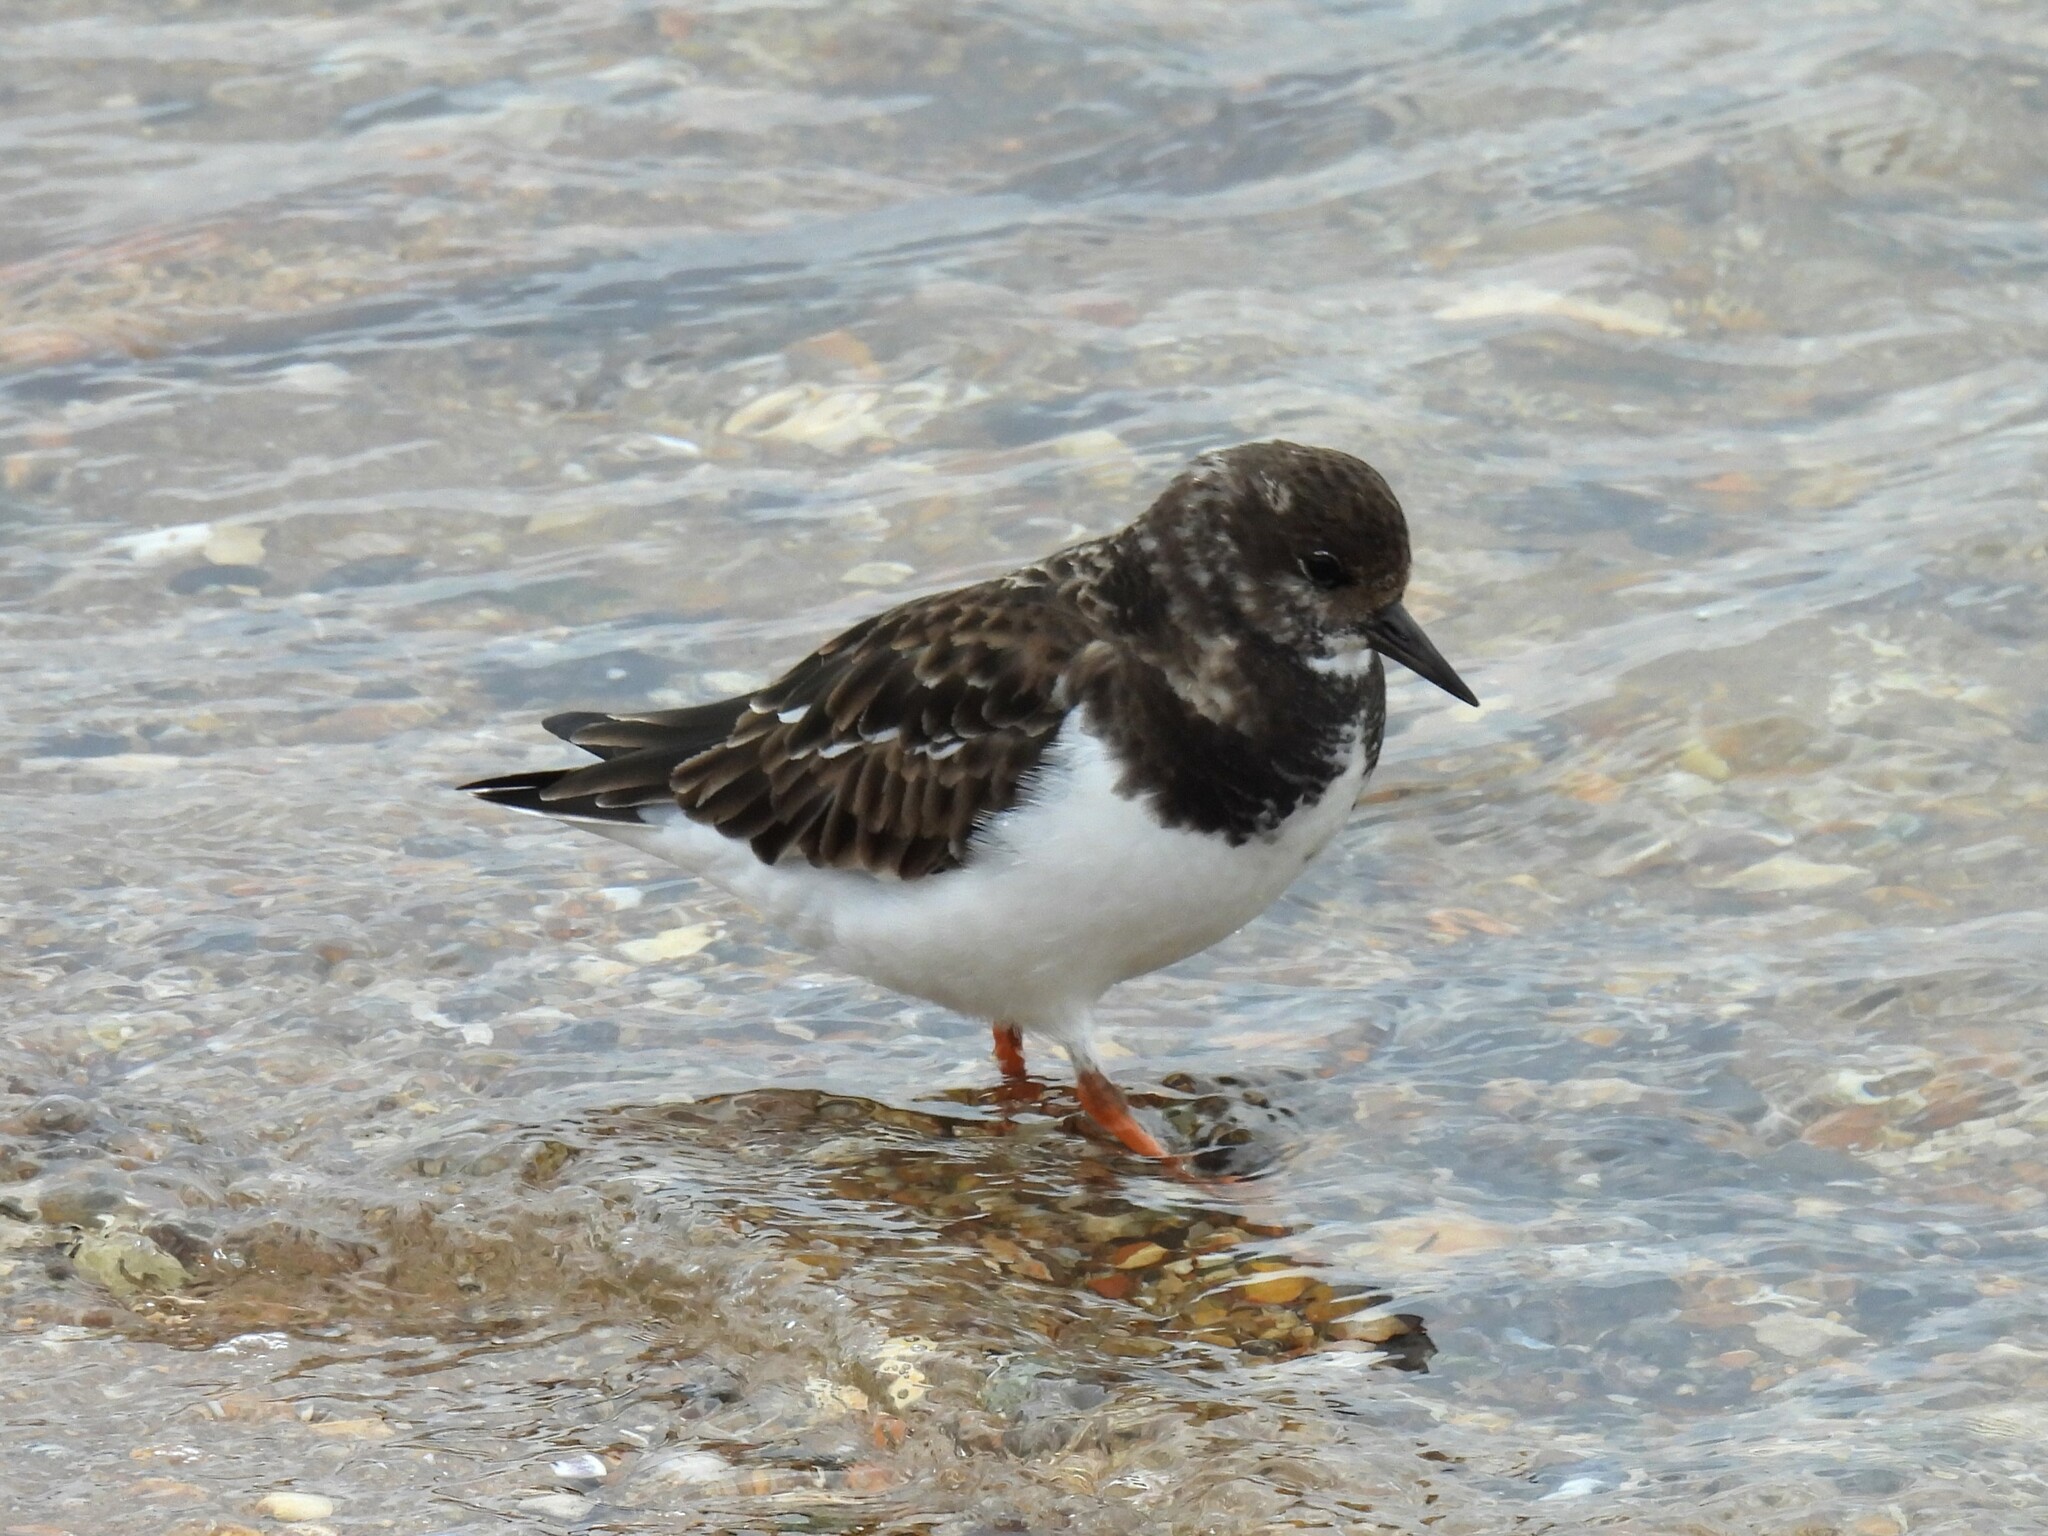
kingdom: Animalia
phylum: Chordata
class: Aves
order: Charadriiformes
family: Scolopacidae
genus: Arenaria
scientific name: Arenaria interpres
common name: Ruddy turnstone
